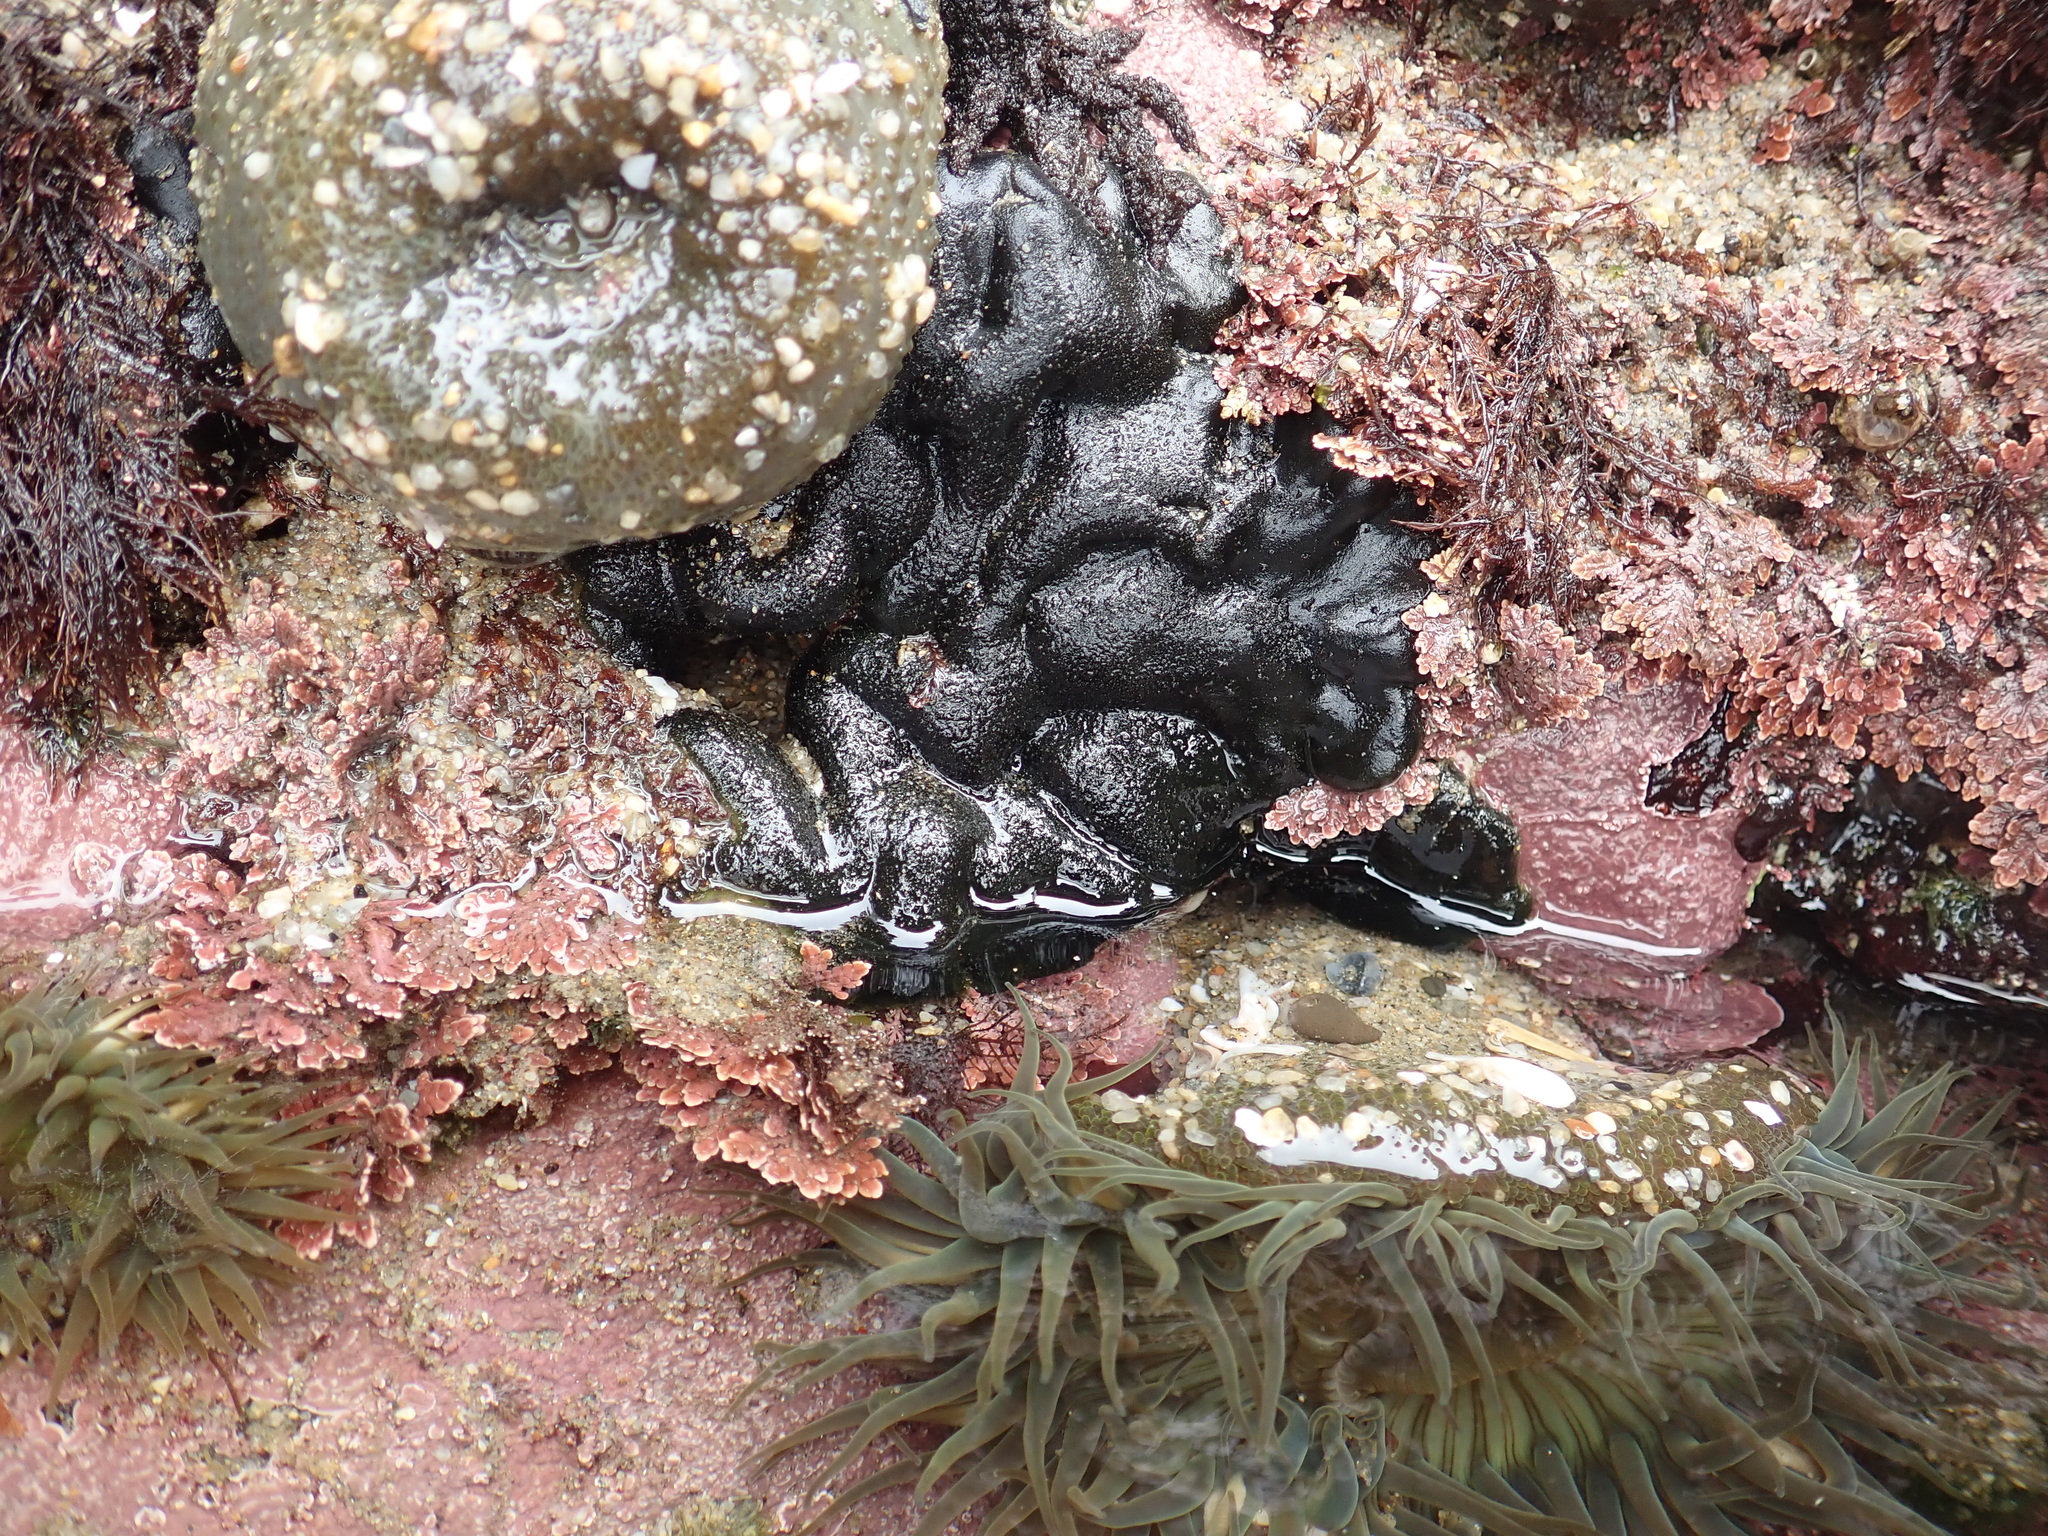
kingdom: Plantae
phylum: Chlorophyta
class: Ulvophyceae
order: Bryopsidales
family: Codiaceae
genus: Codium
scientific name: Codium setchellii
